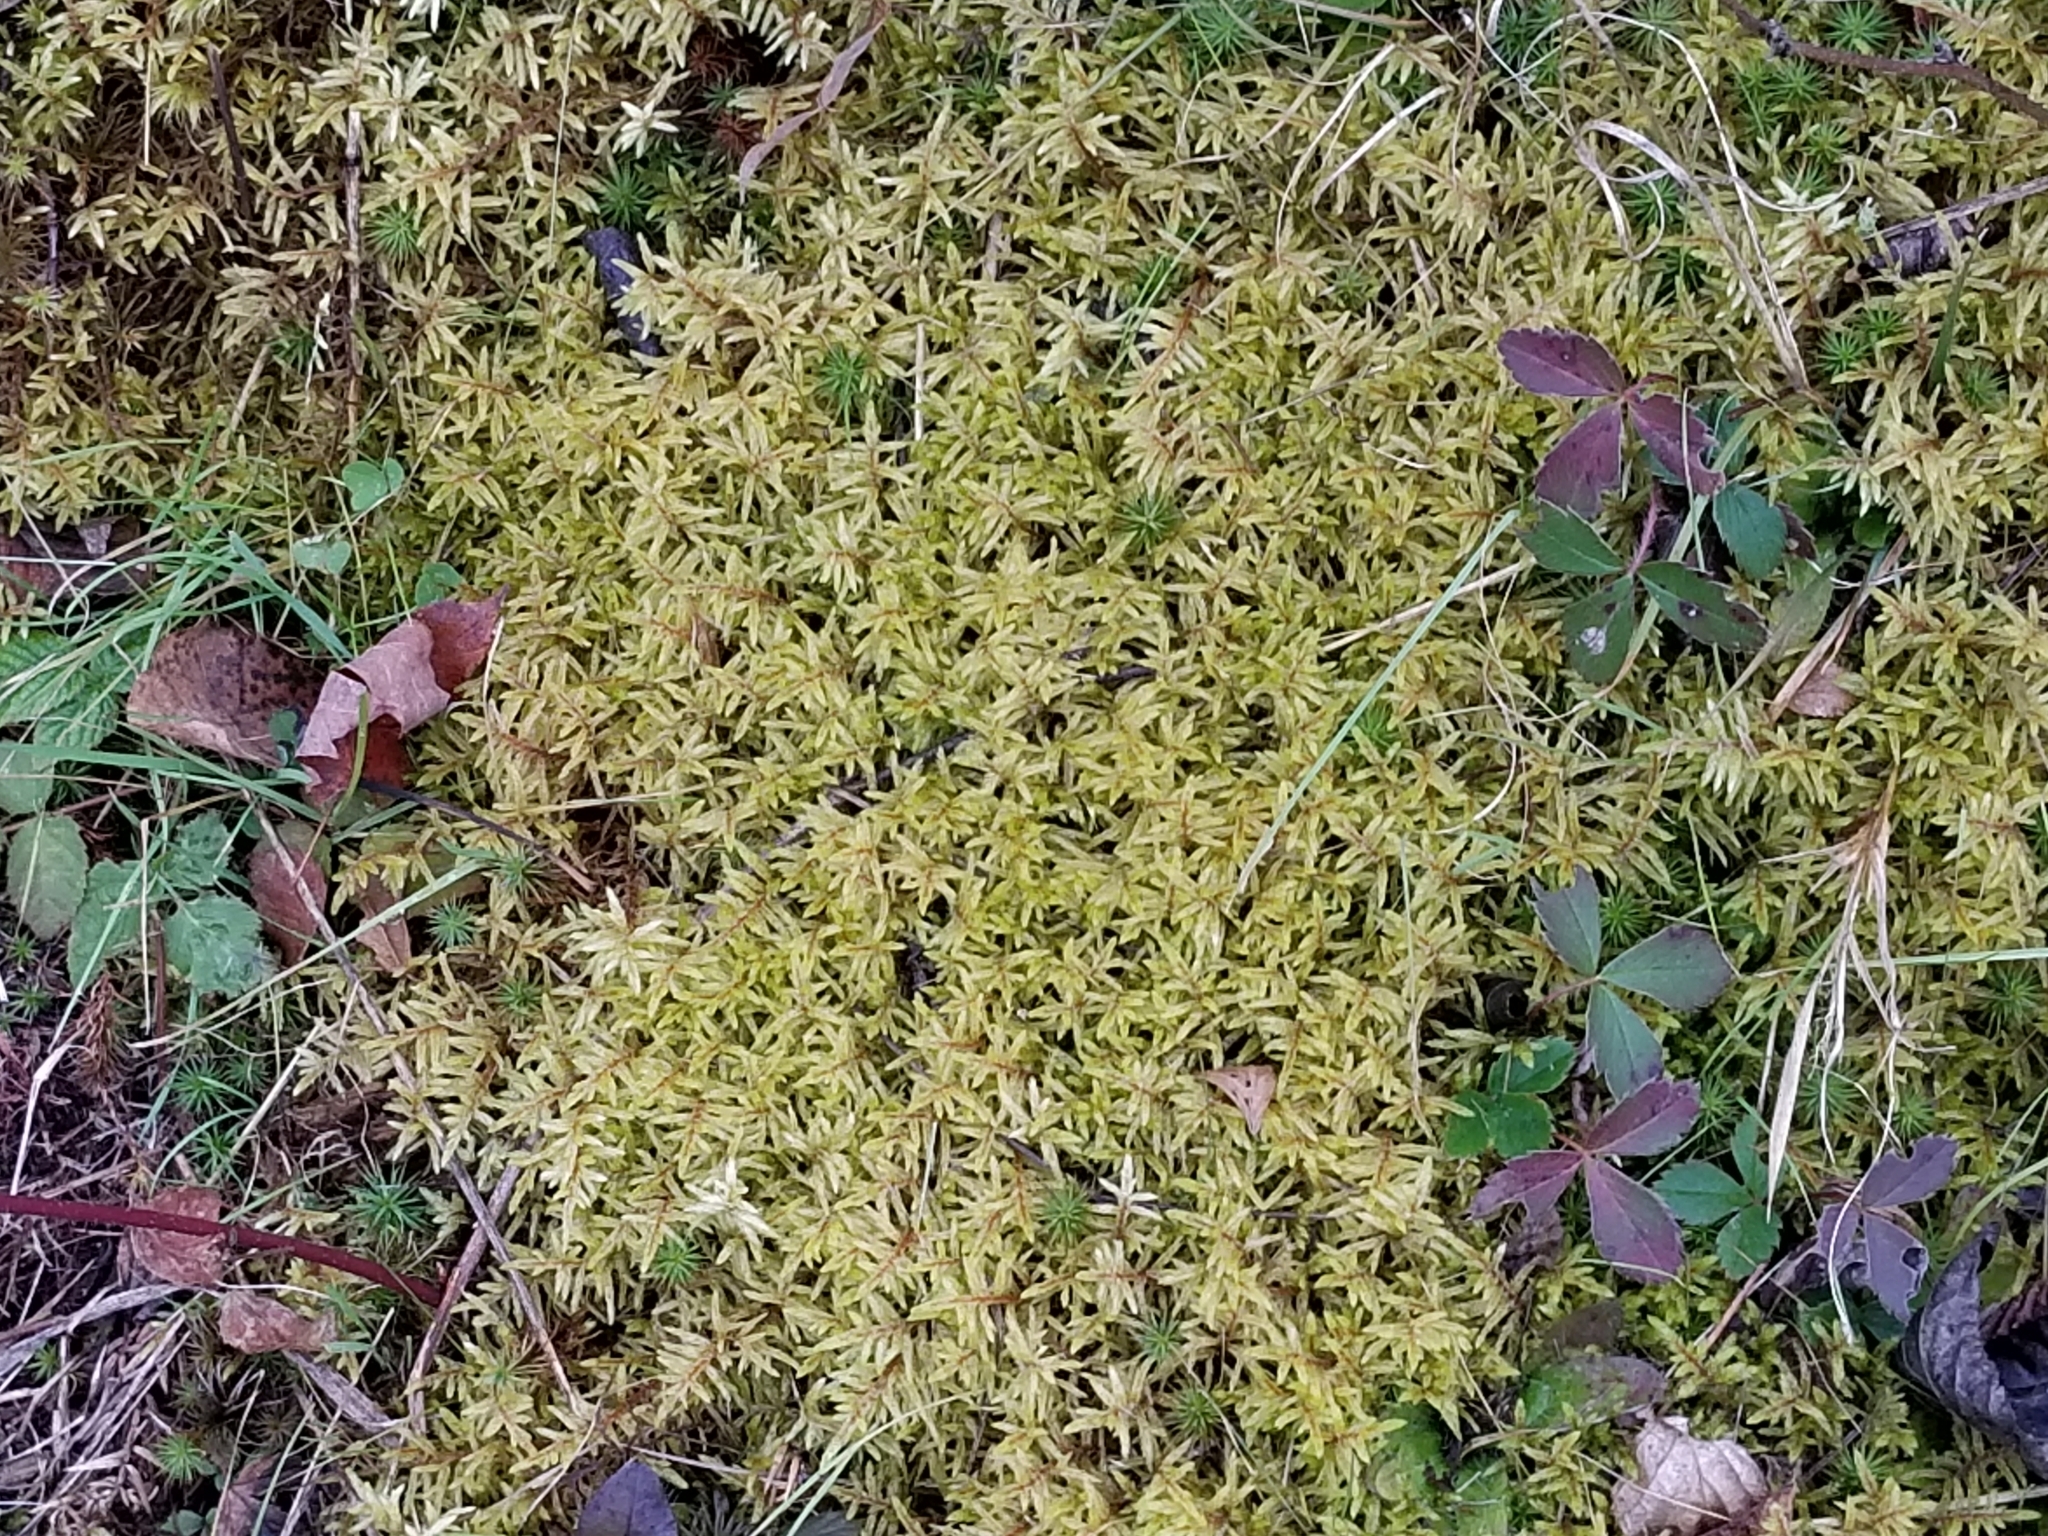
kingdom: Plantae
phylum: Bryophyta
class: Bryopsida
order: Hypnales
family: Hylocomiaceae
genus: Pleurozium
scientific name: Pleurozium schreberi
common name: Red-stemmed feather moss
